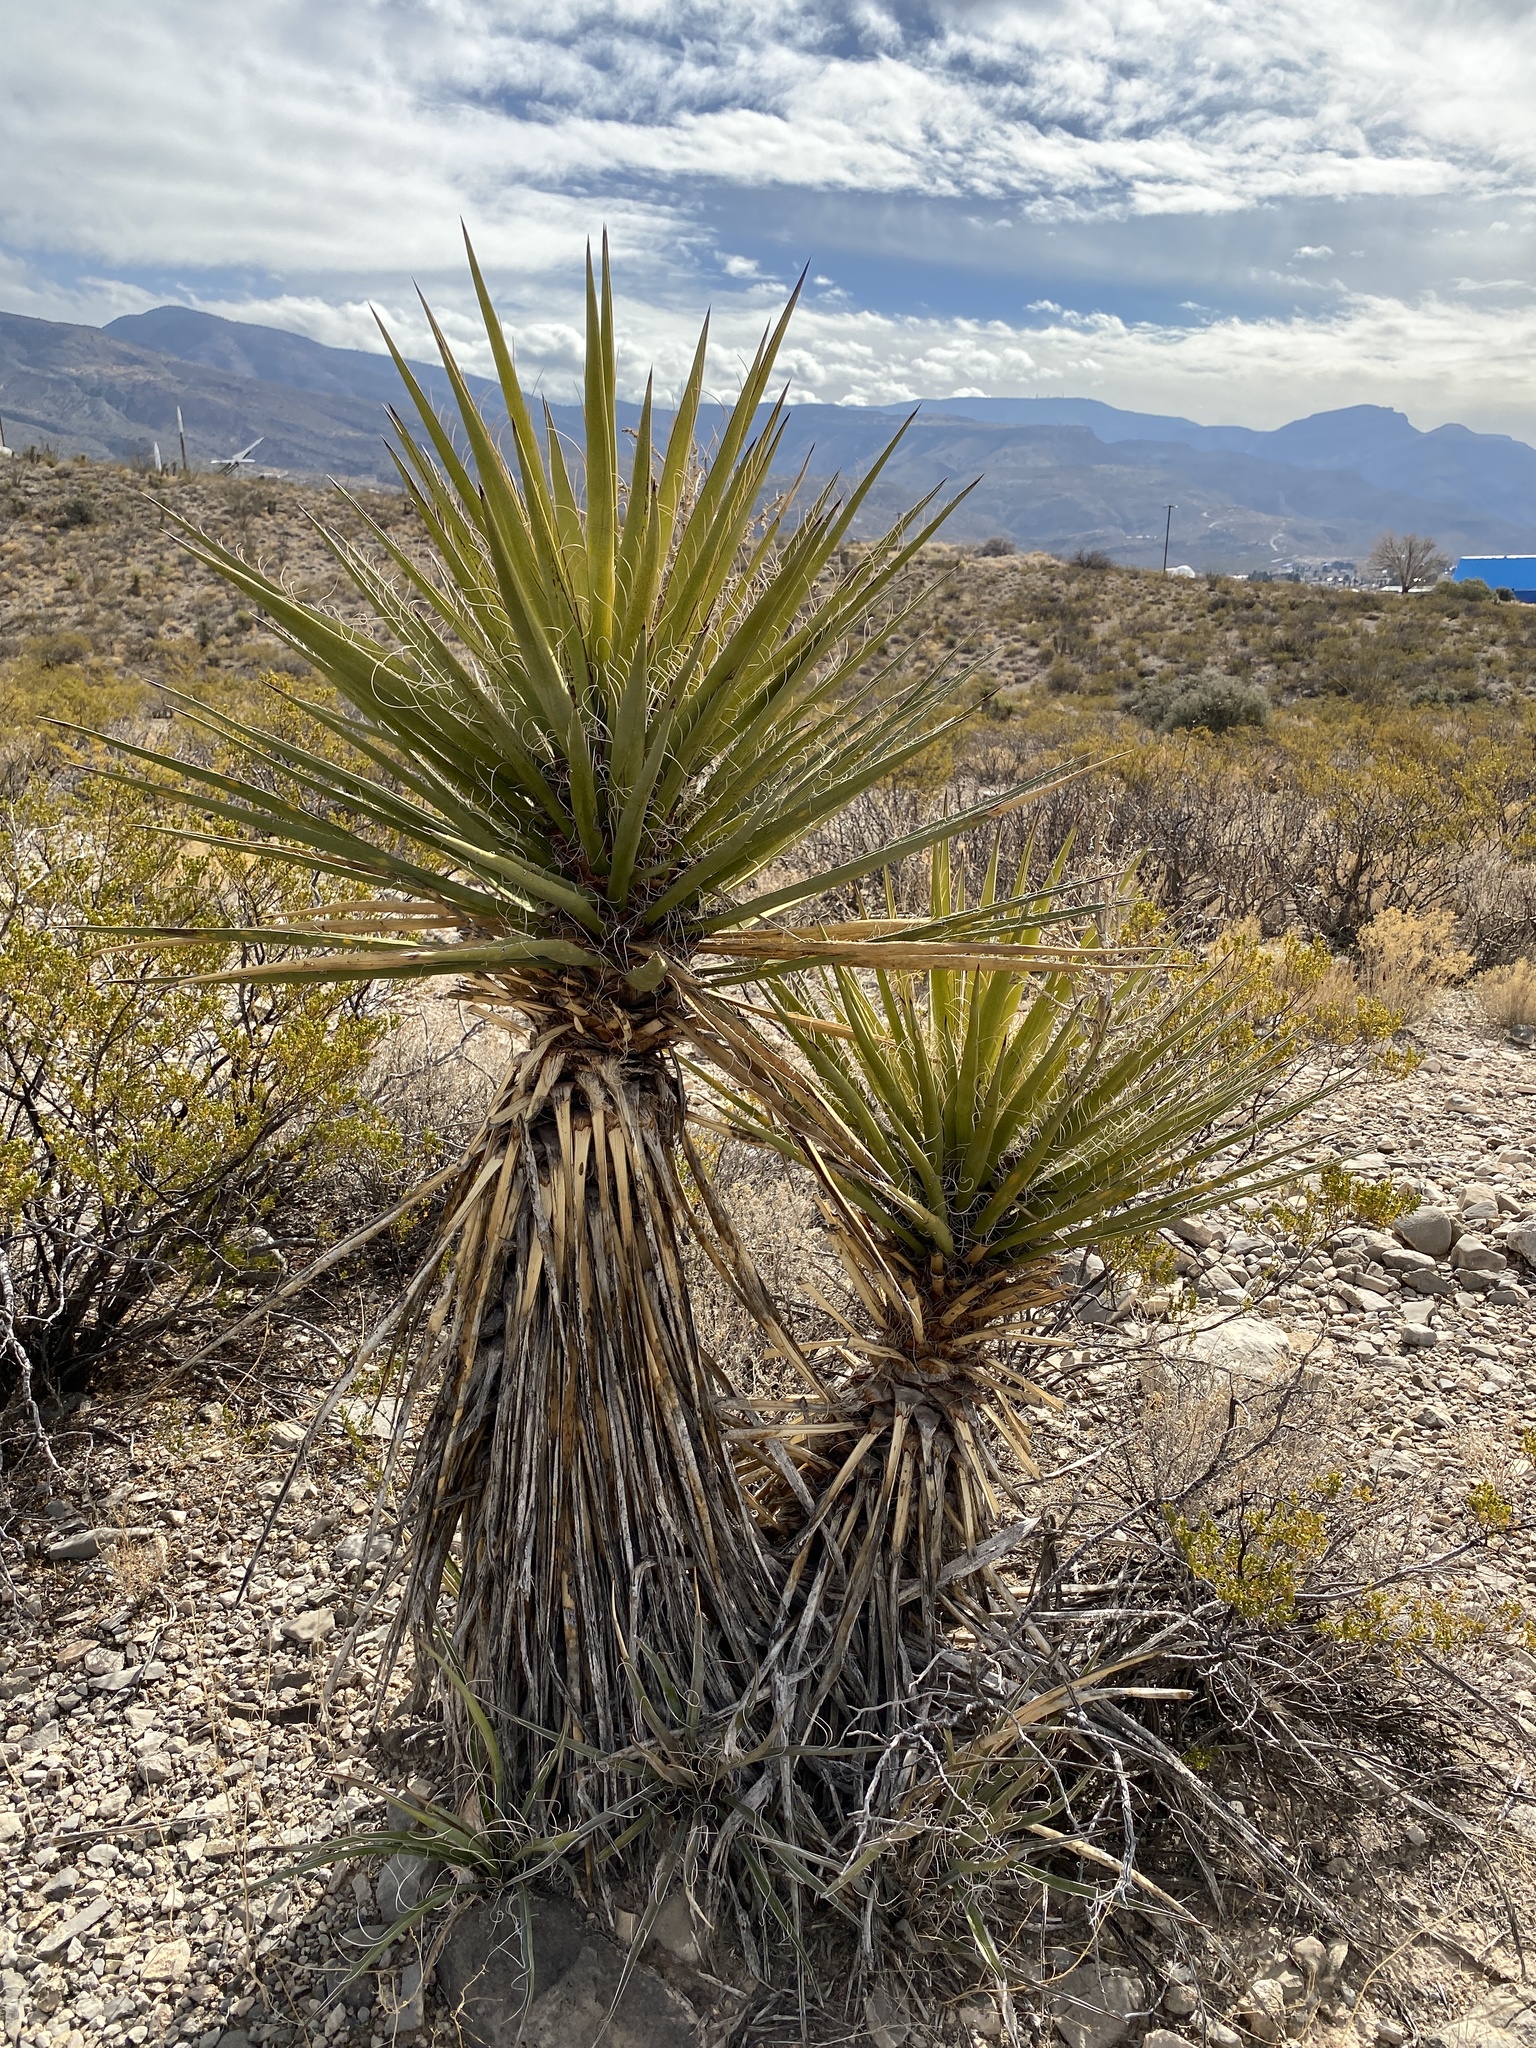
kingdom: Plantae
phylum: Tracheophyta
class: Liliopsida
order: Asparagales
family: Asparagaceae
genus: Yucca
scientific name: Yucca treculiana
